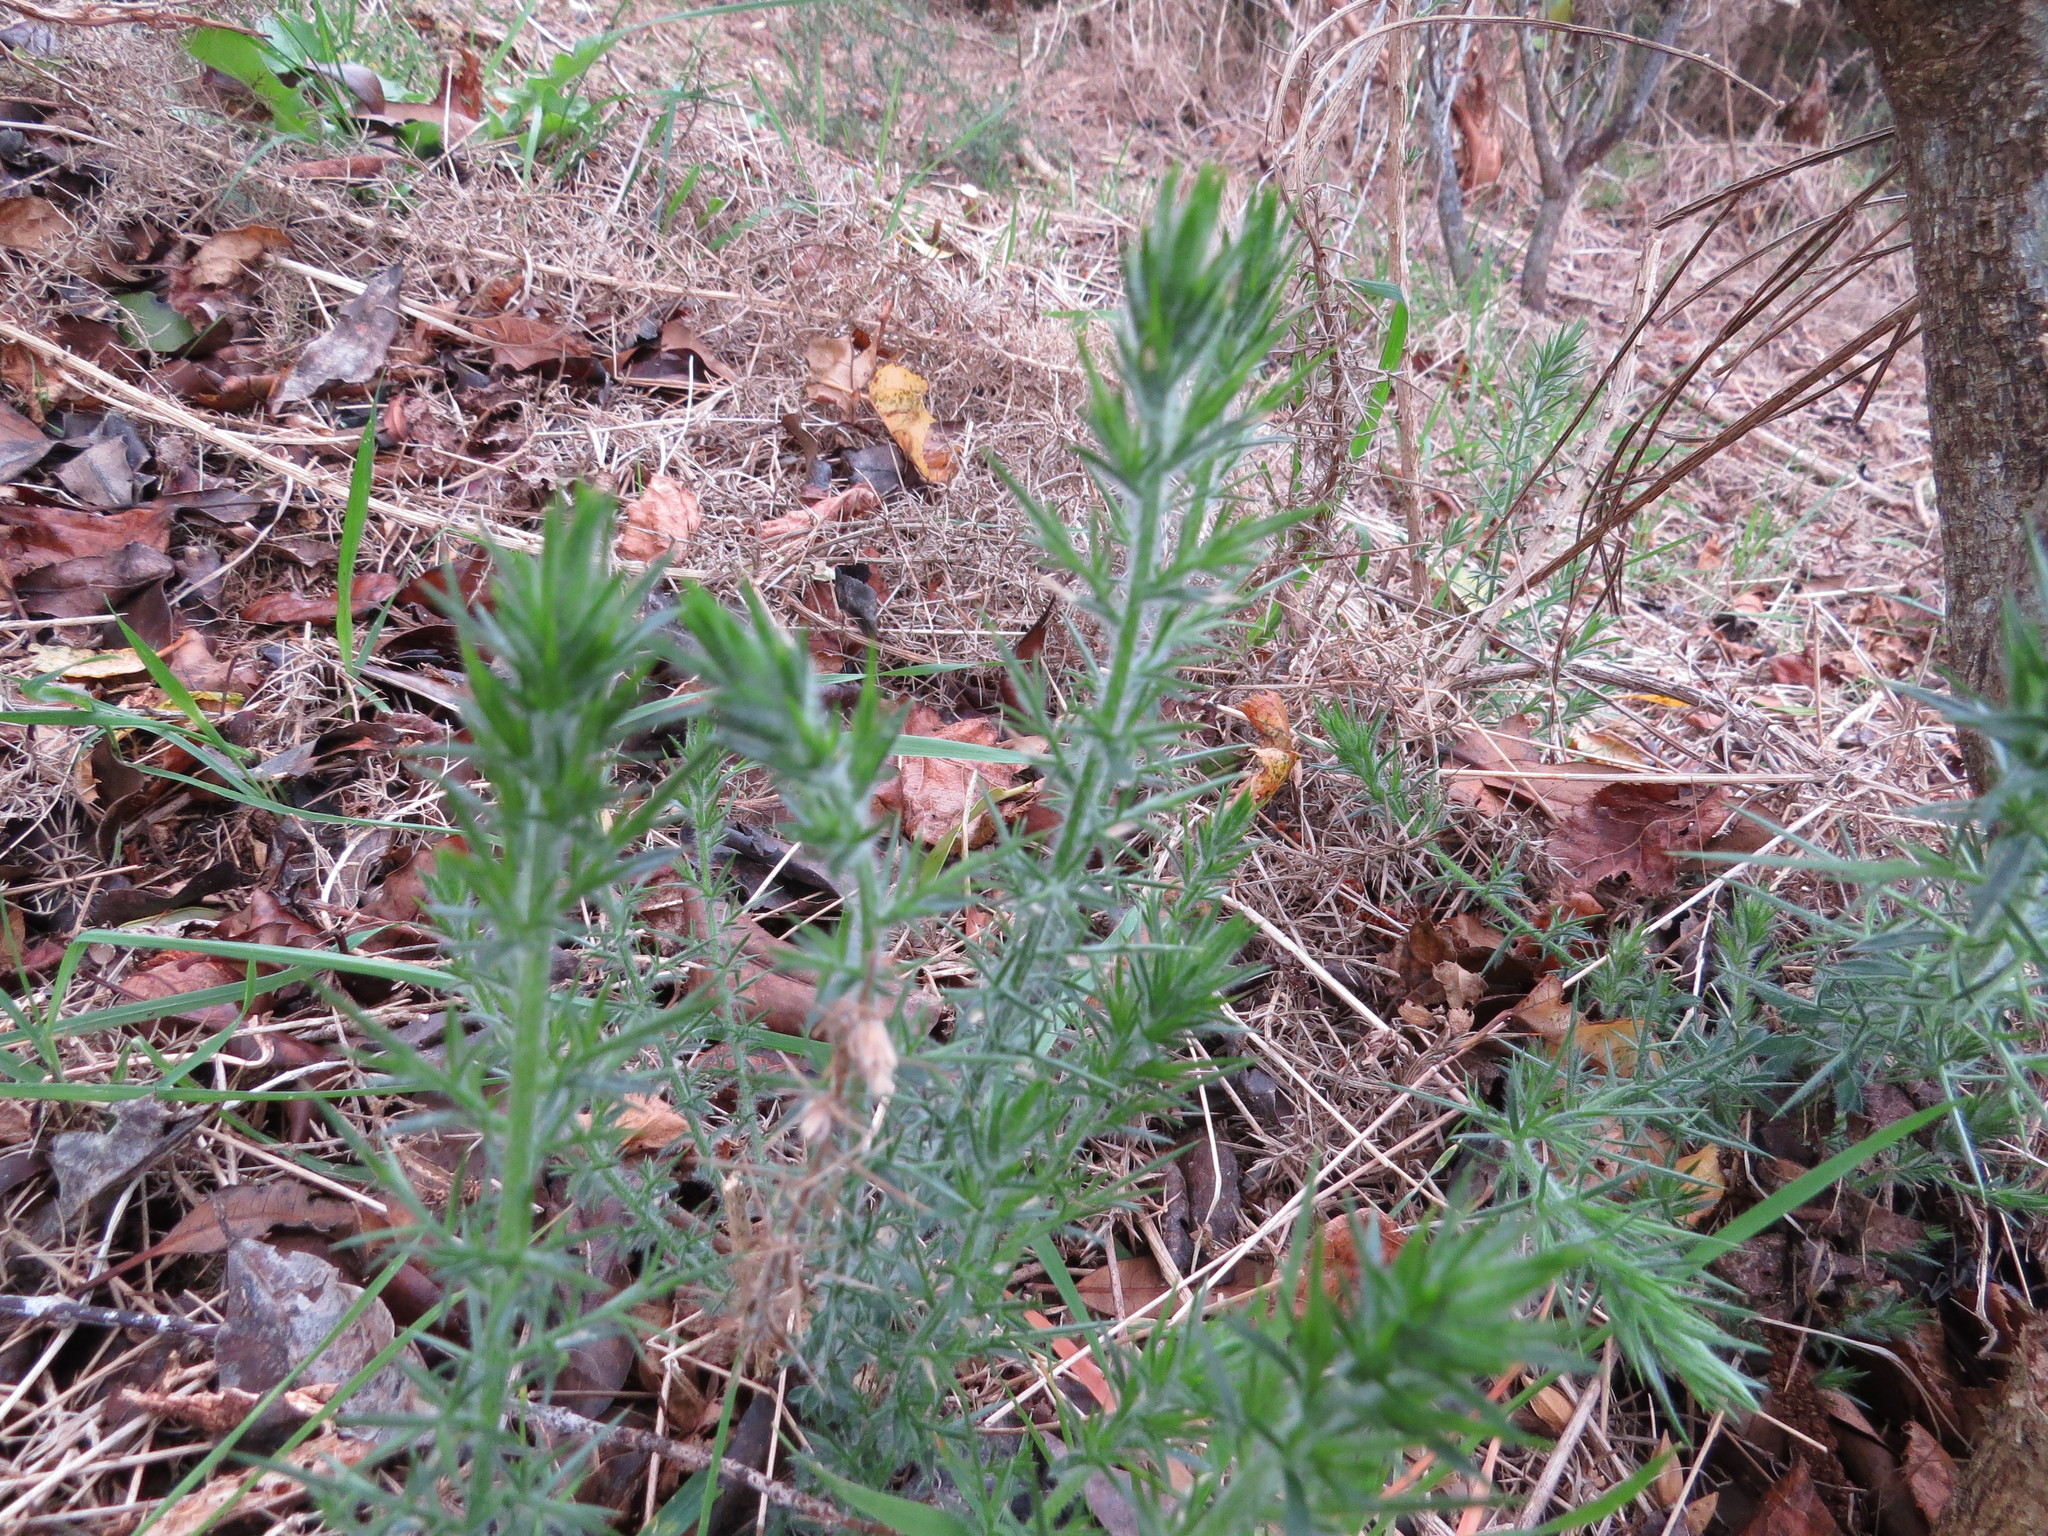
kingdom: Plantae
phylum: Tracheophyta
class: Magnoliopsida
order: Fabales
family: Fabaceae
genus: Ulex
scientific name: Ulex europaeus
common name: Common gorse
